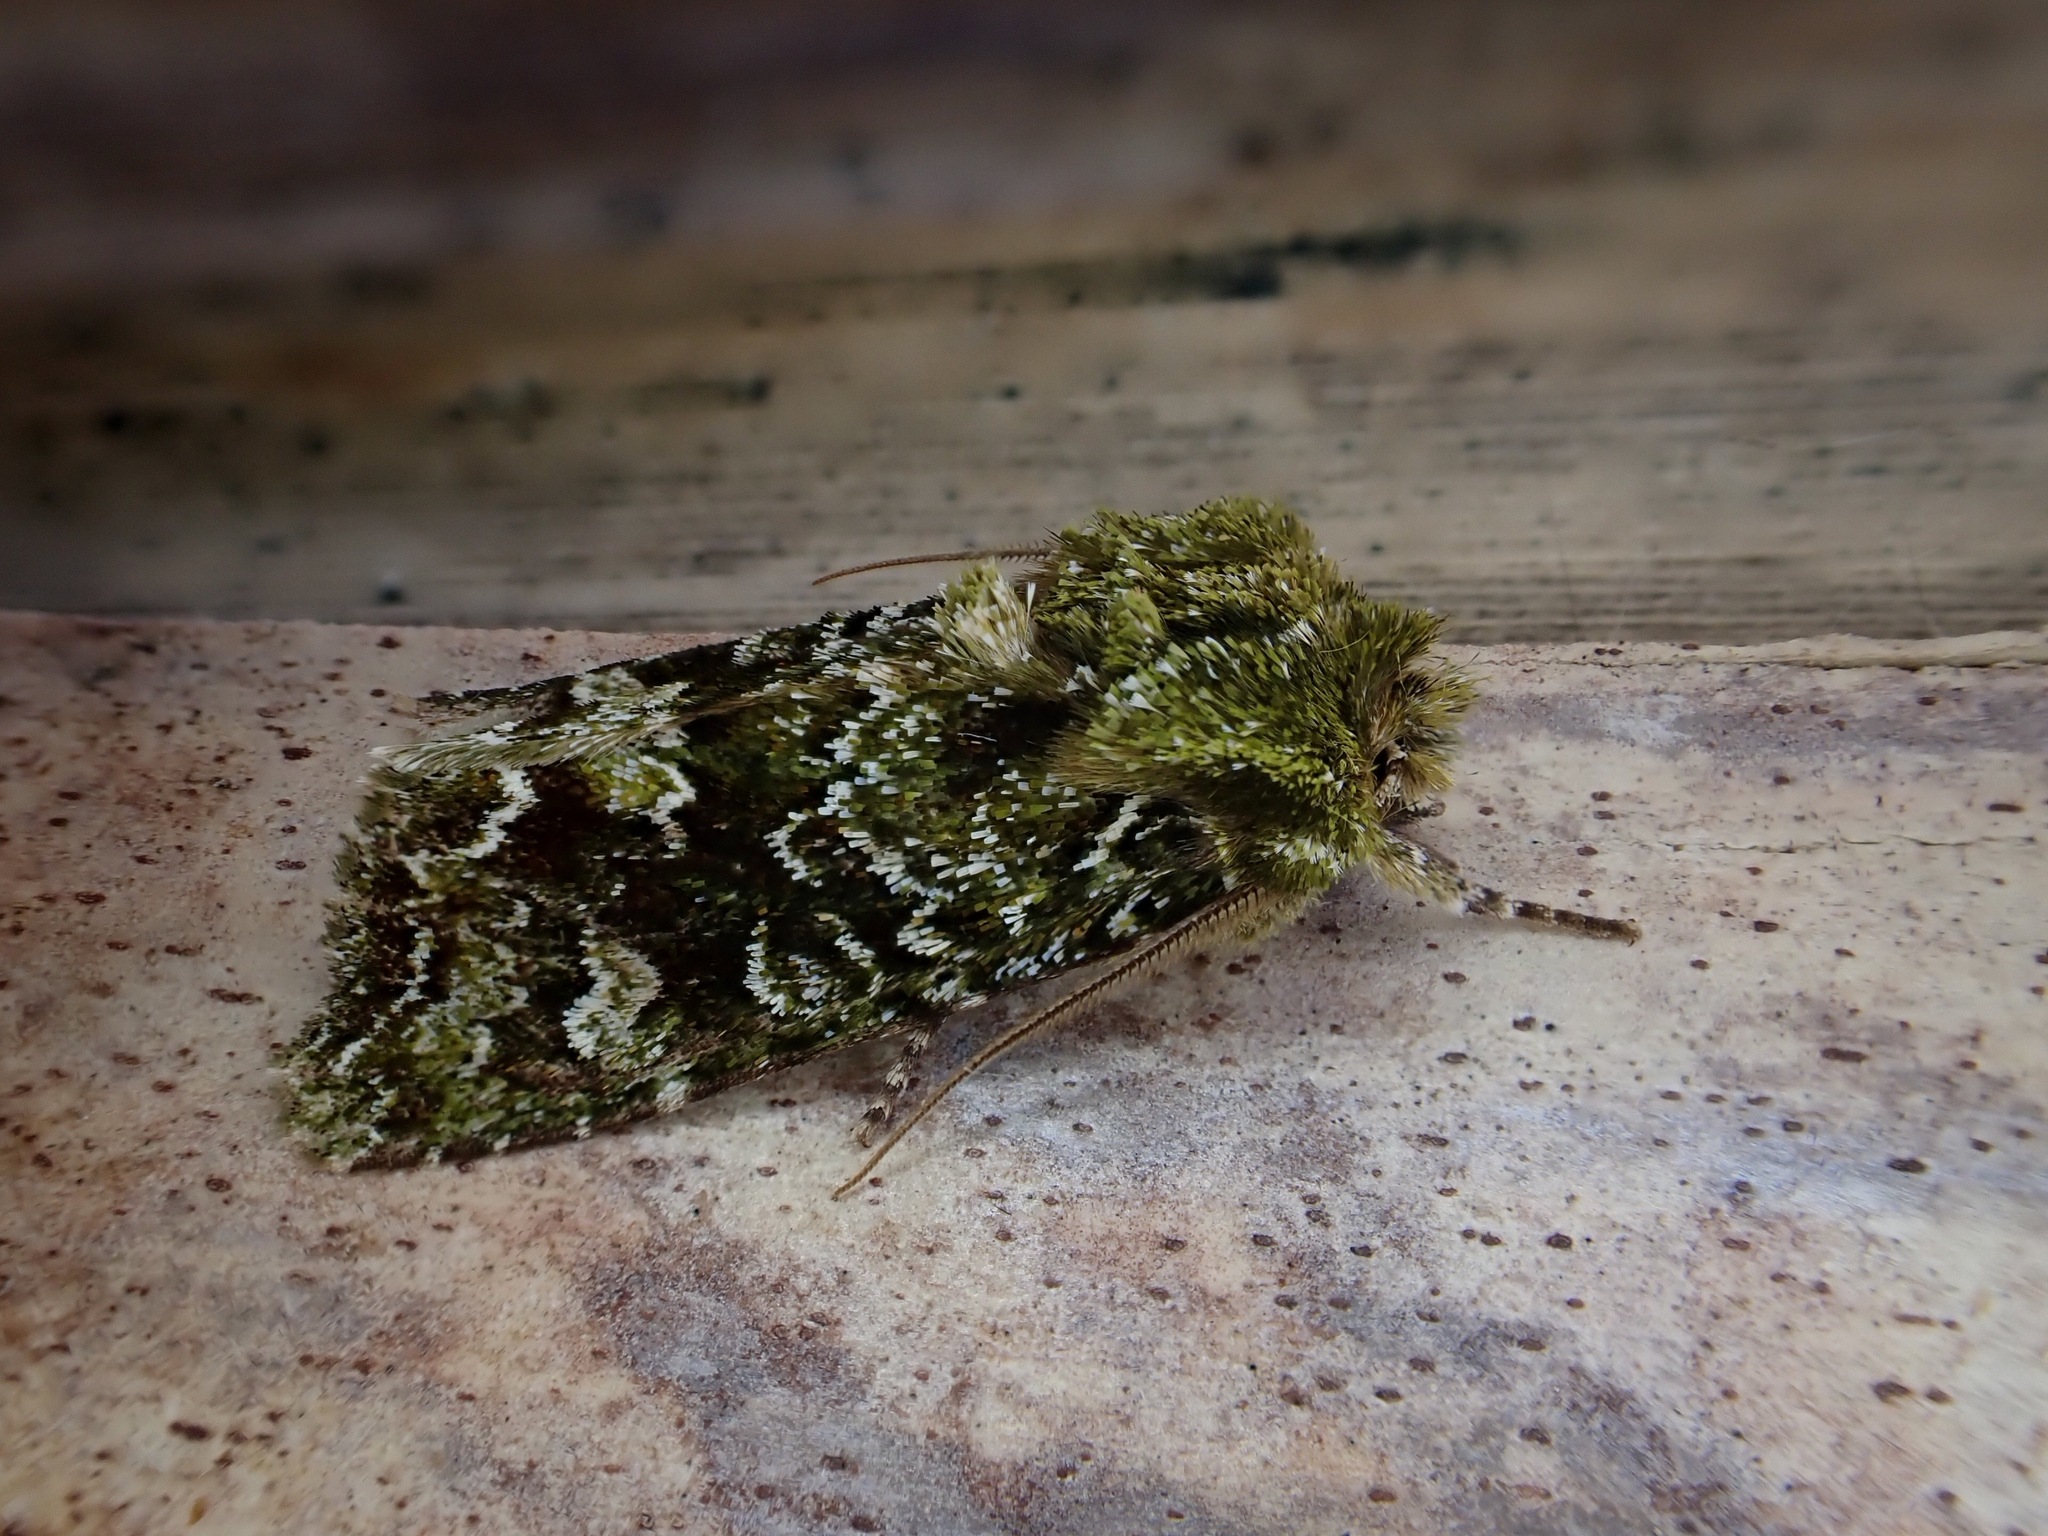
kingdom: Animalia
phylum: Arthropoda
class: Insecta
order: Lepidoptera
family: Noctuidae
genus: Ichneutica
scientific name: Ichneutica peridotea
